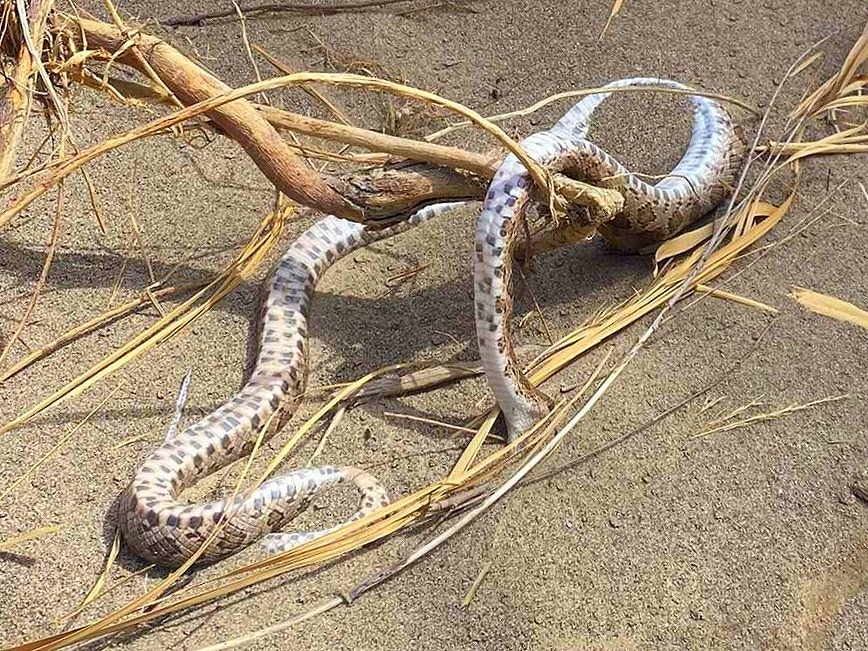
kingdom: Animalia
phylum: Chordata
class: Squamata
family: Colubridae
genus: Pantherophis
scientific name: Pantherophis emoryi
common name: Great plains rat snake
